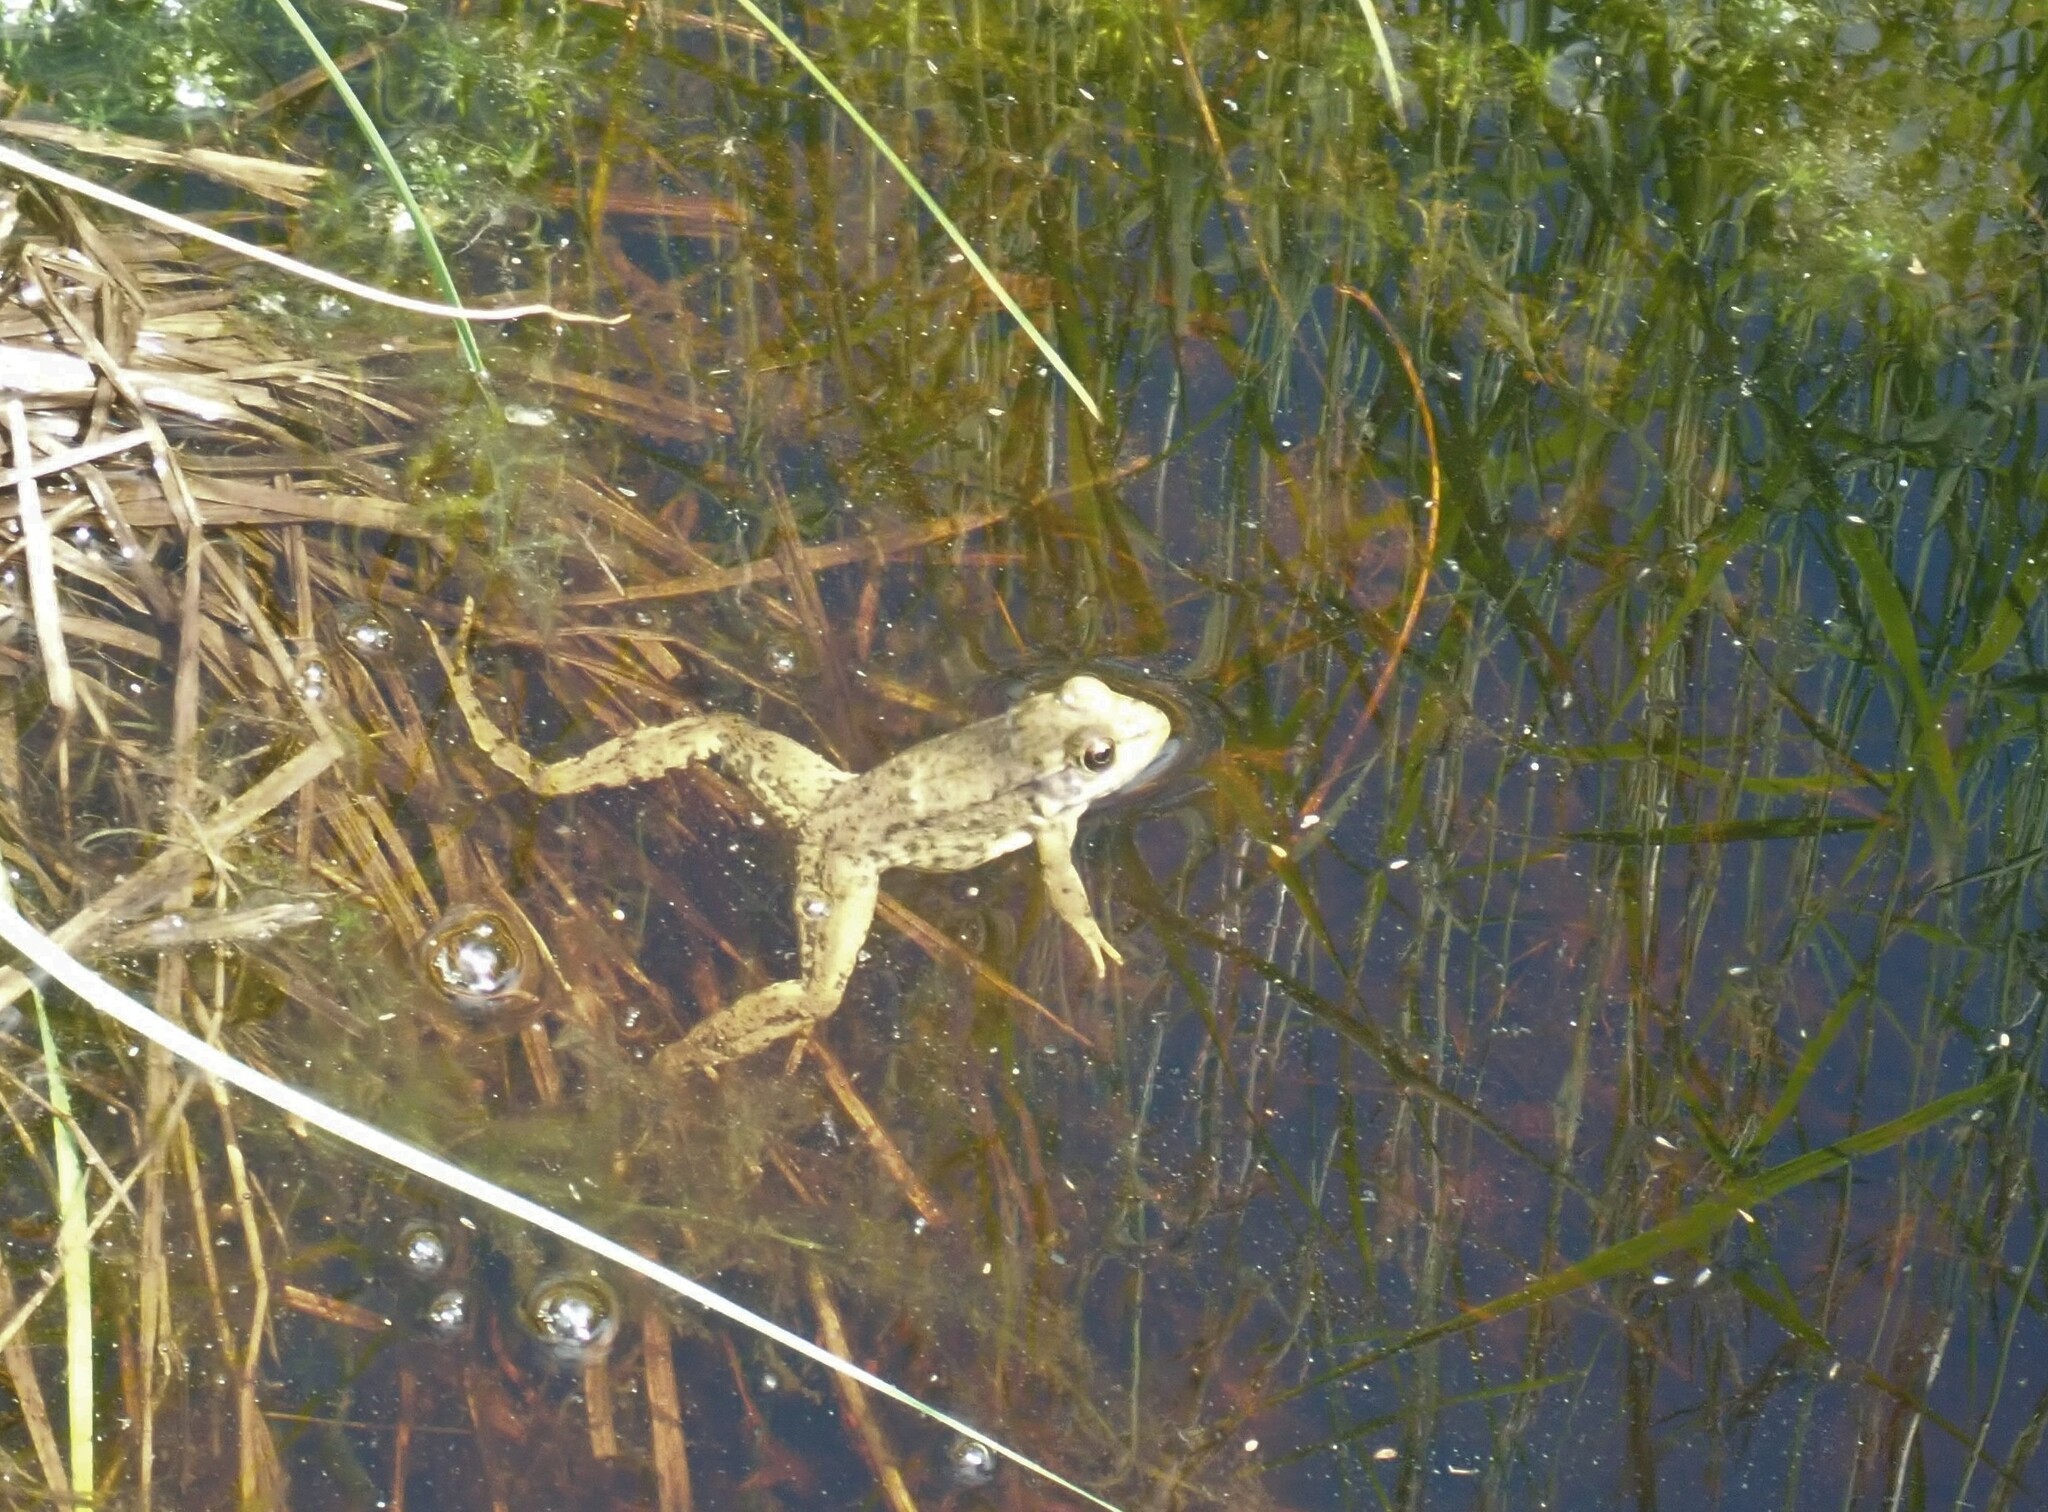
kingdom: Animalia
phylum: Chordata
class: Amphibia
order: Anura
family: Ranidae
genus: Lithobates
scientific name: Lithobates clamitans
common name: Green frog
